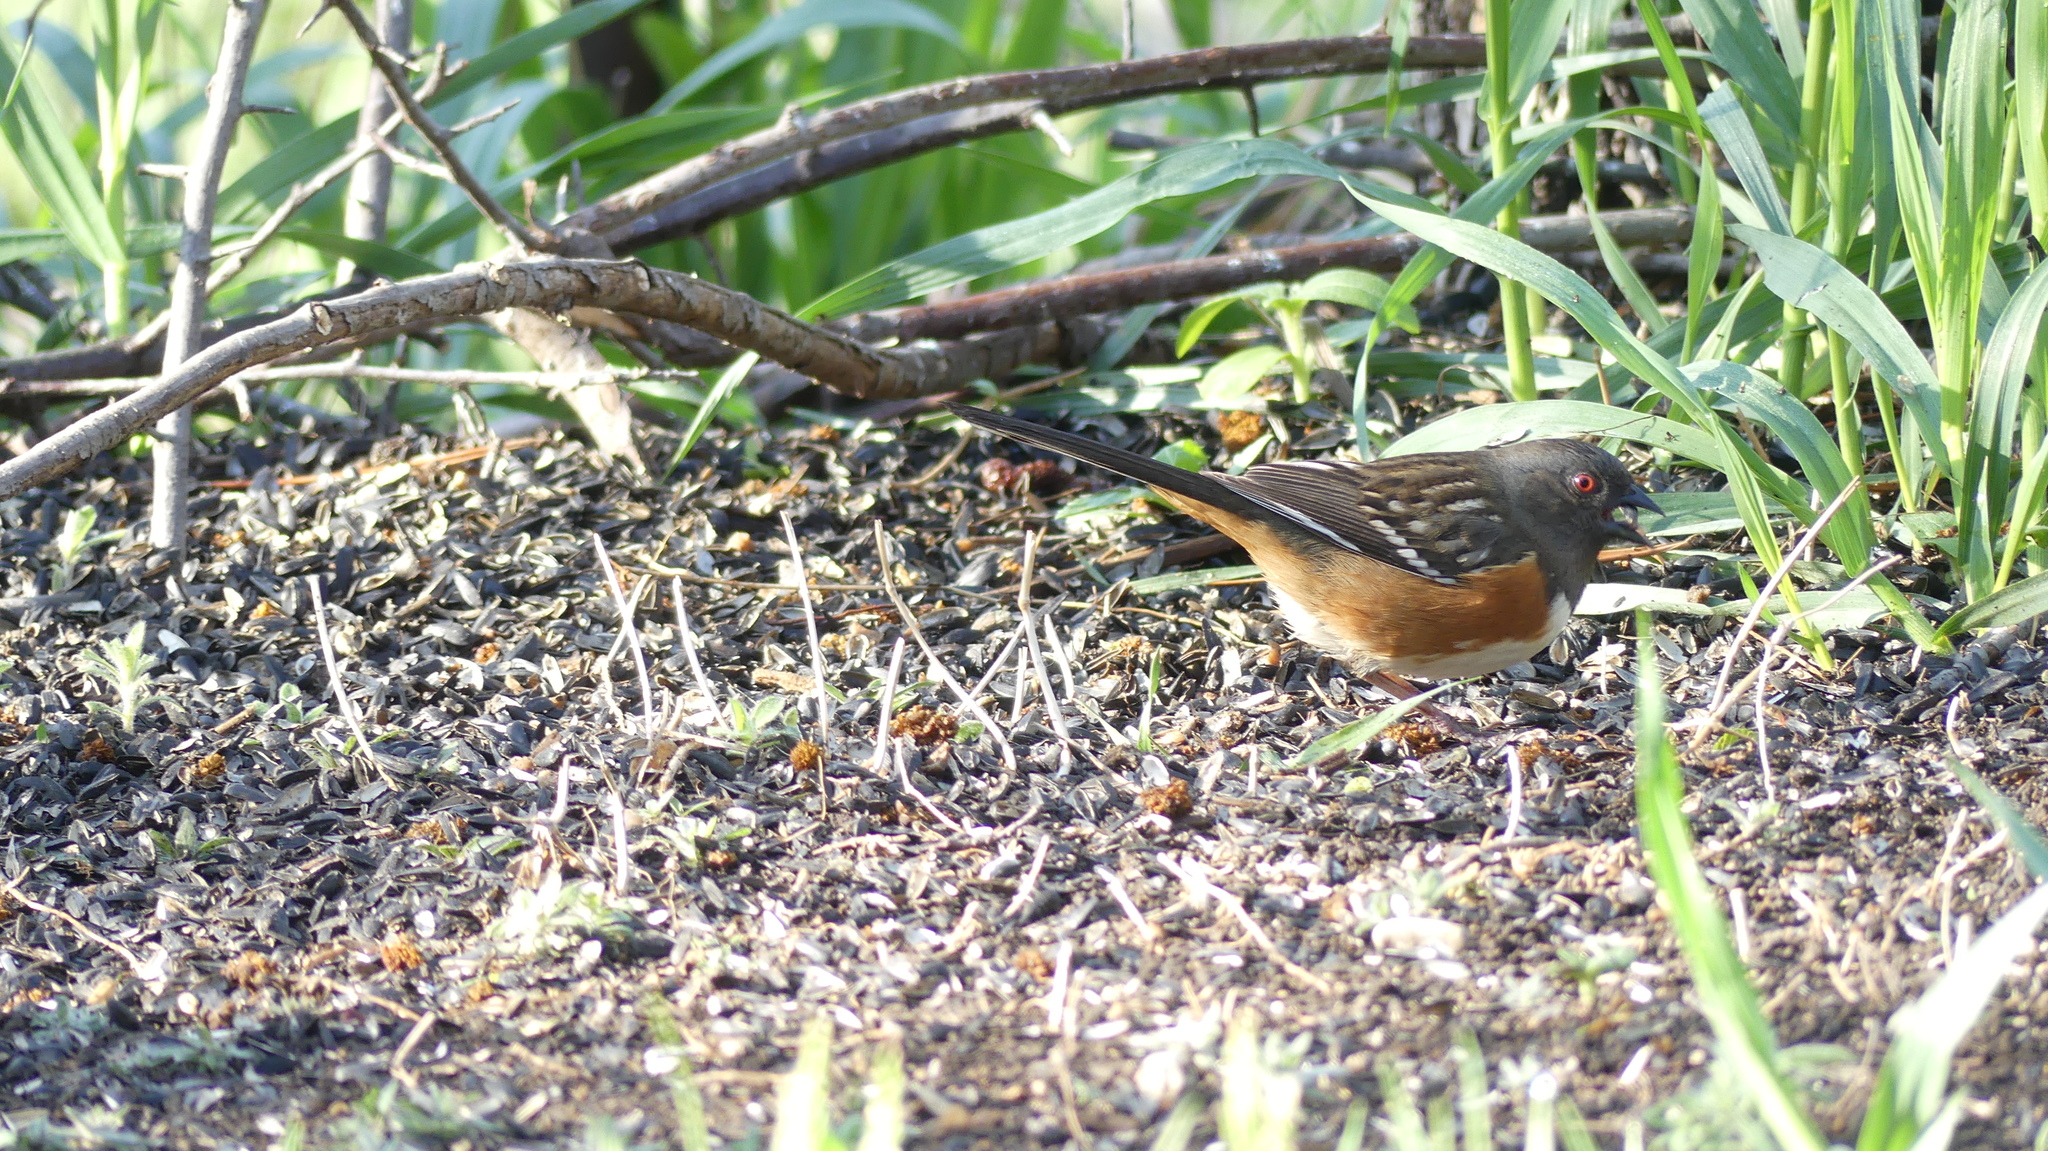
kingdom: Animalia
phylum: Chordata
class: Aves
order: Passeriformes
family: Passerellidae
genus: Pipilo
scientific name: Pipilo maculatus
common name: Spotted towhee
